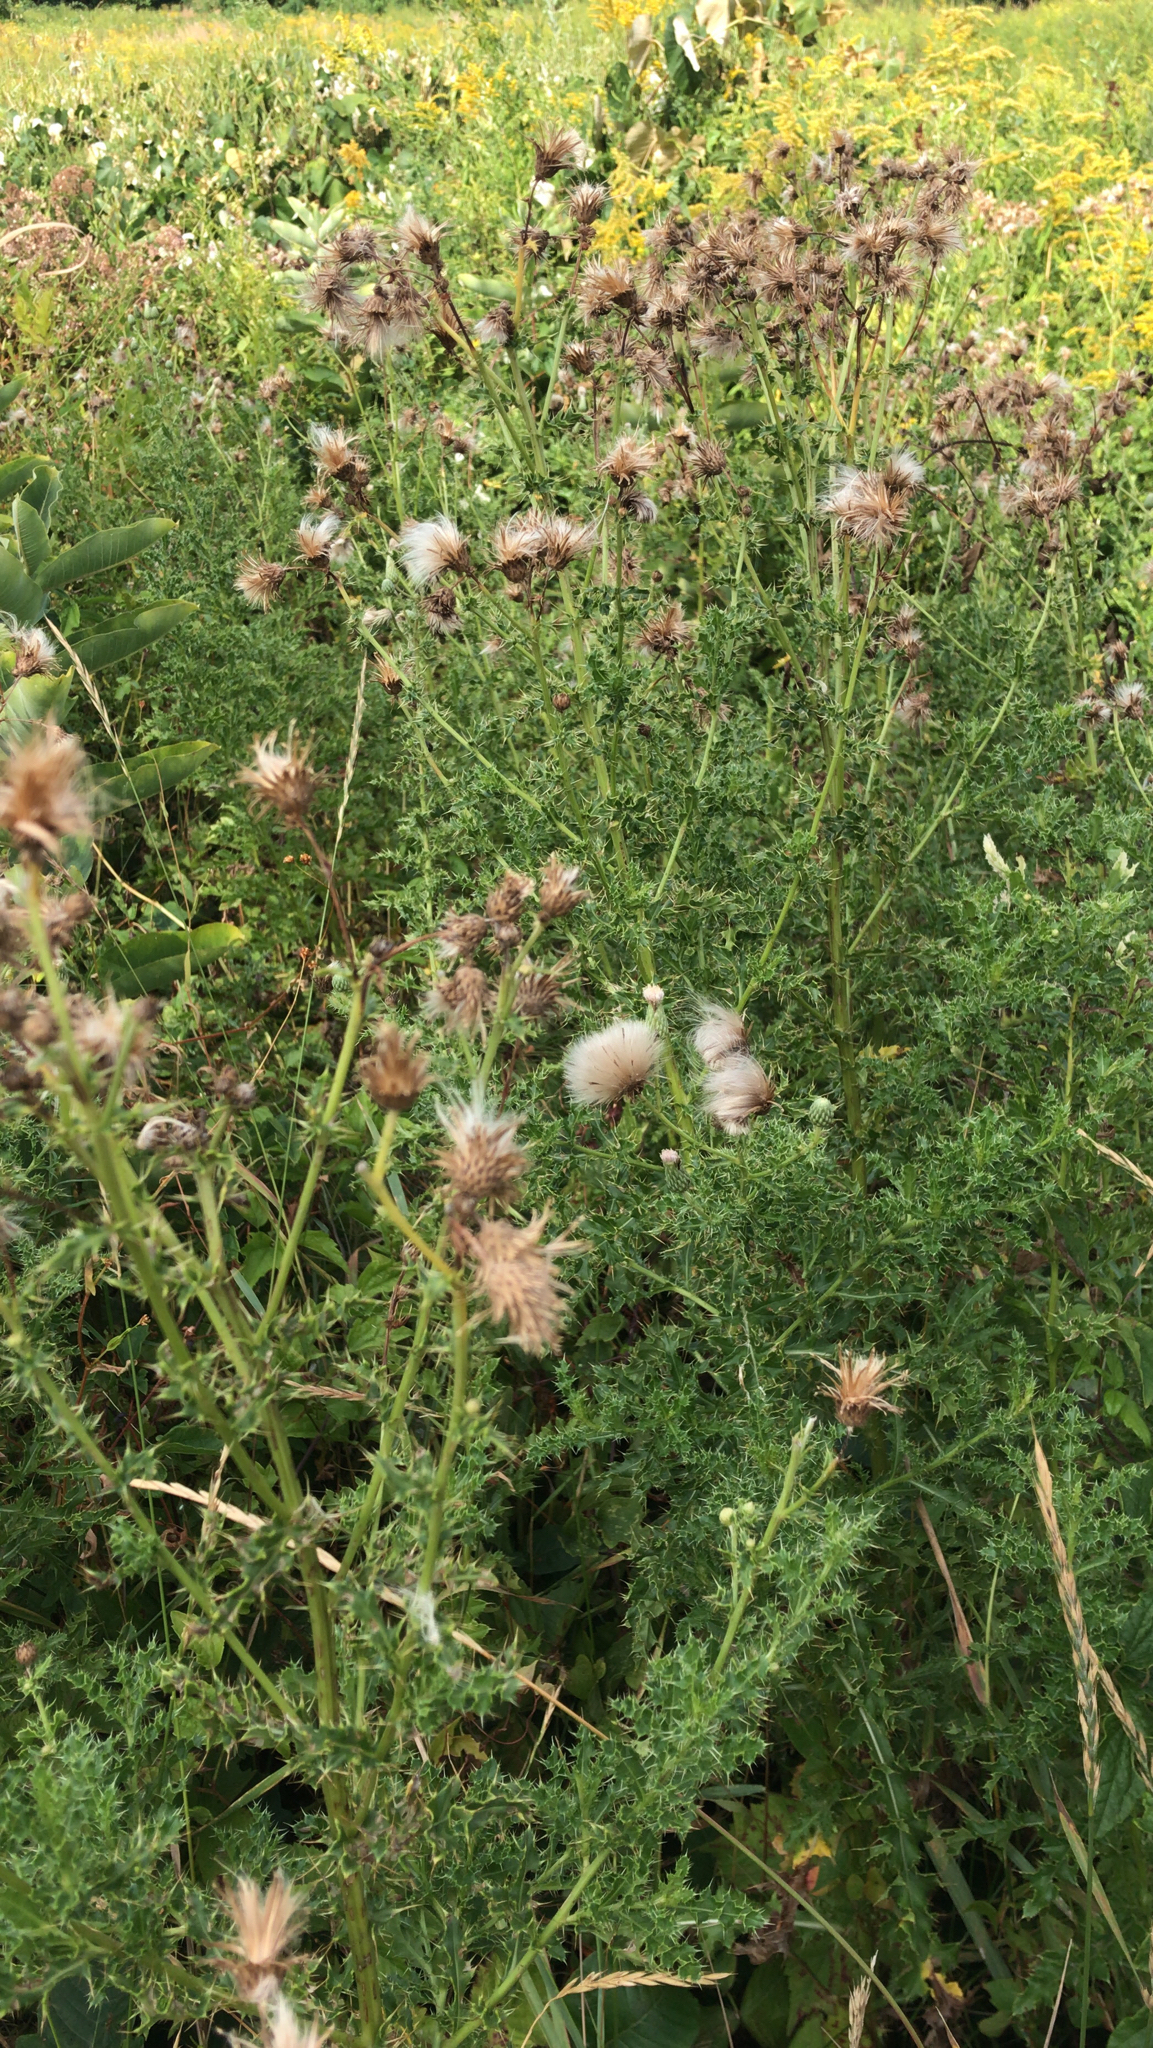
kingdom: Plantae
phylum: Tracheophyta
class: Magnoliopsida
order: Asterales
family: Asteraceae
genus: Cirsium
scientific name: Cirsium arvense
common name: Creeping thistle
